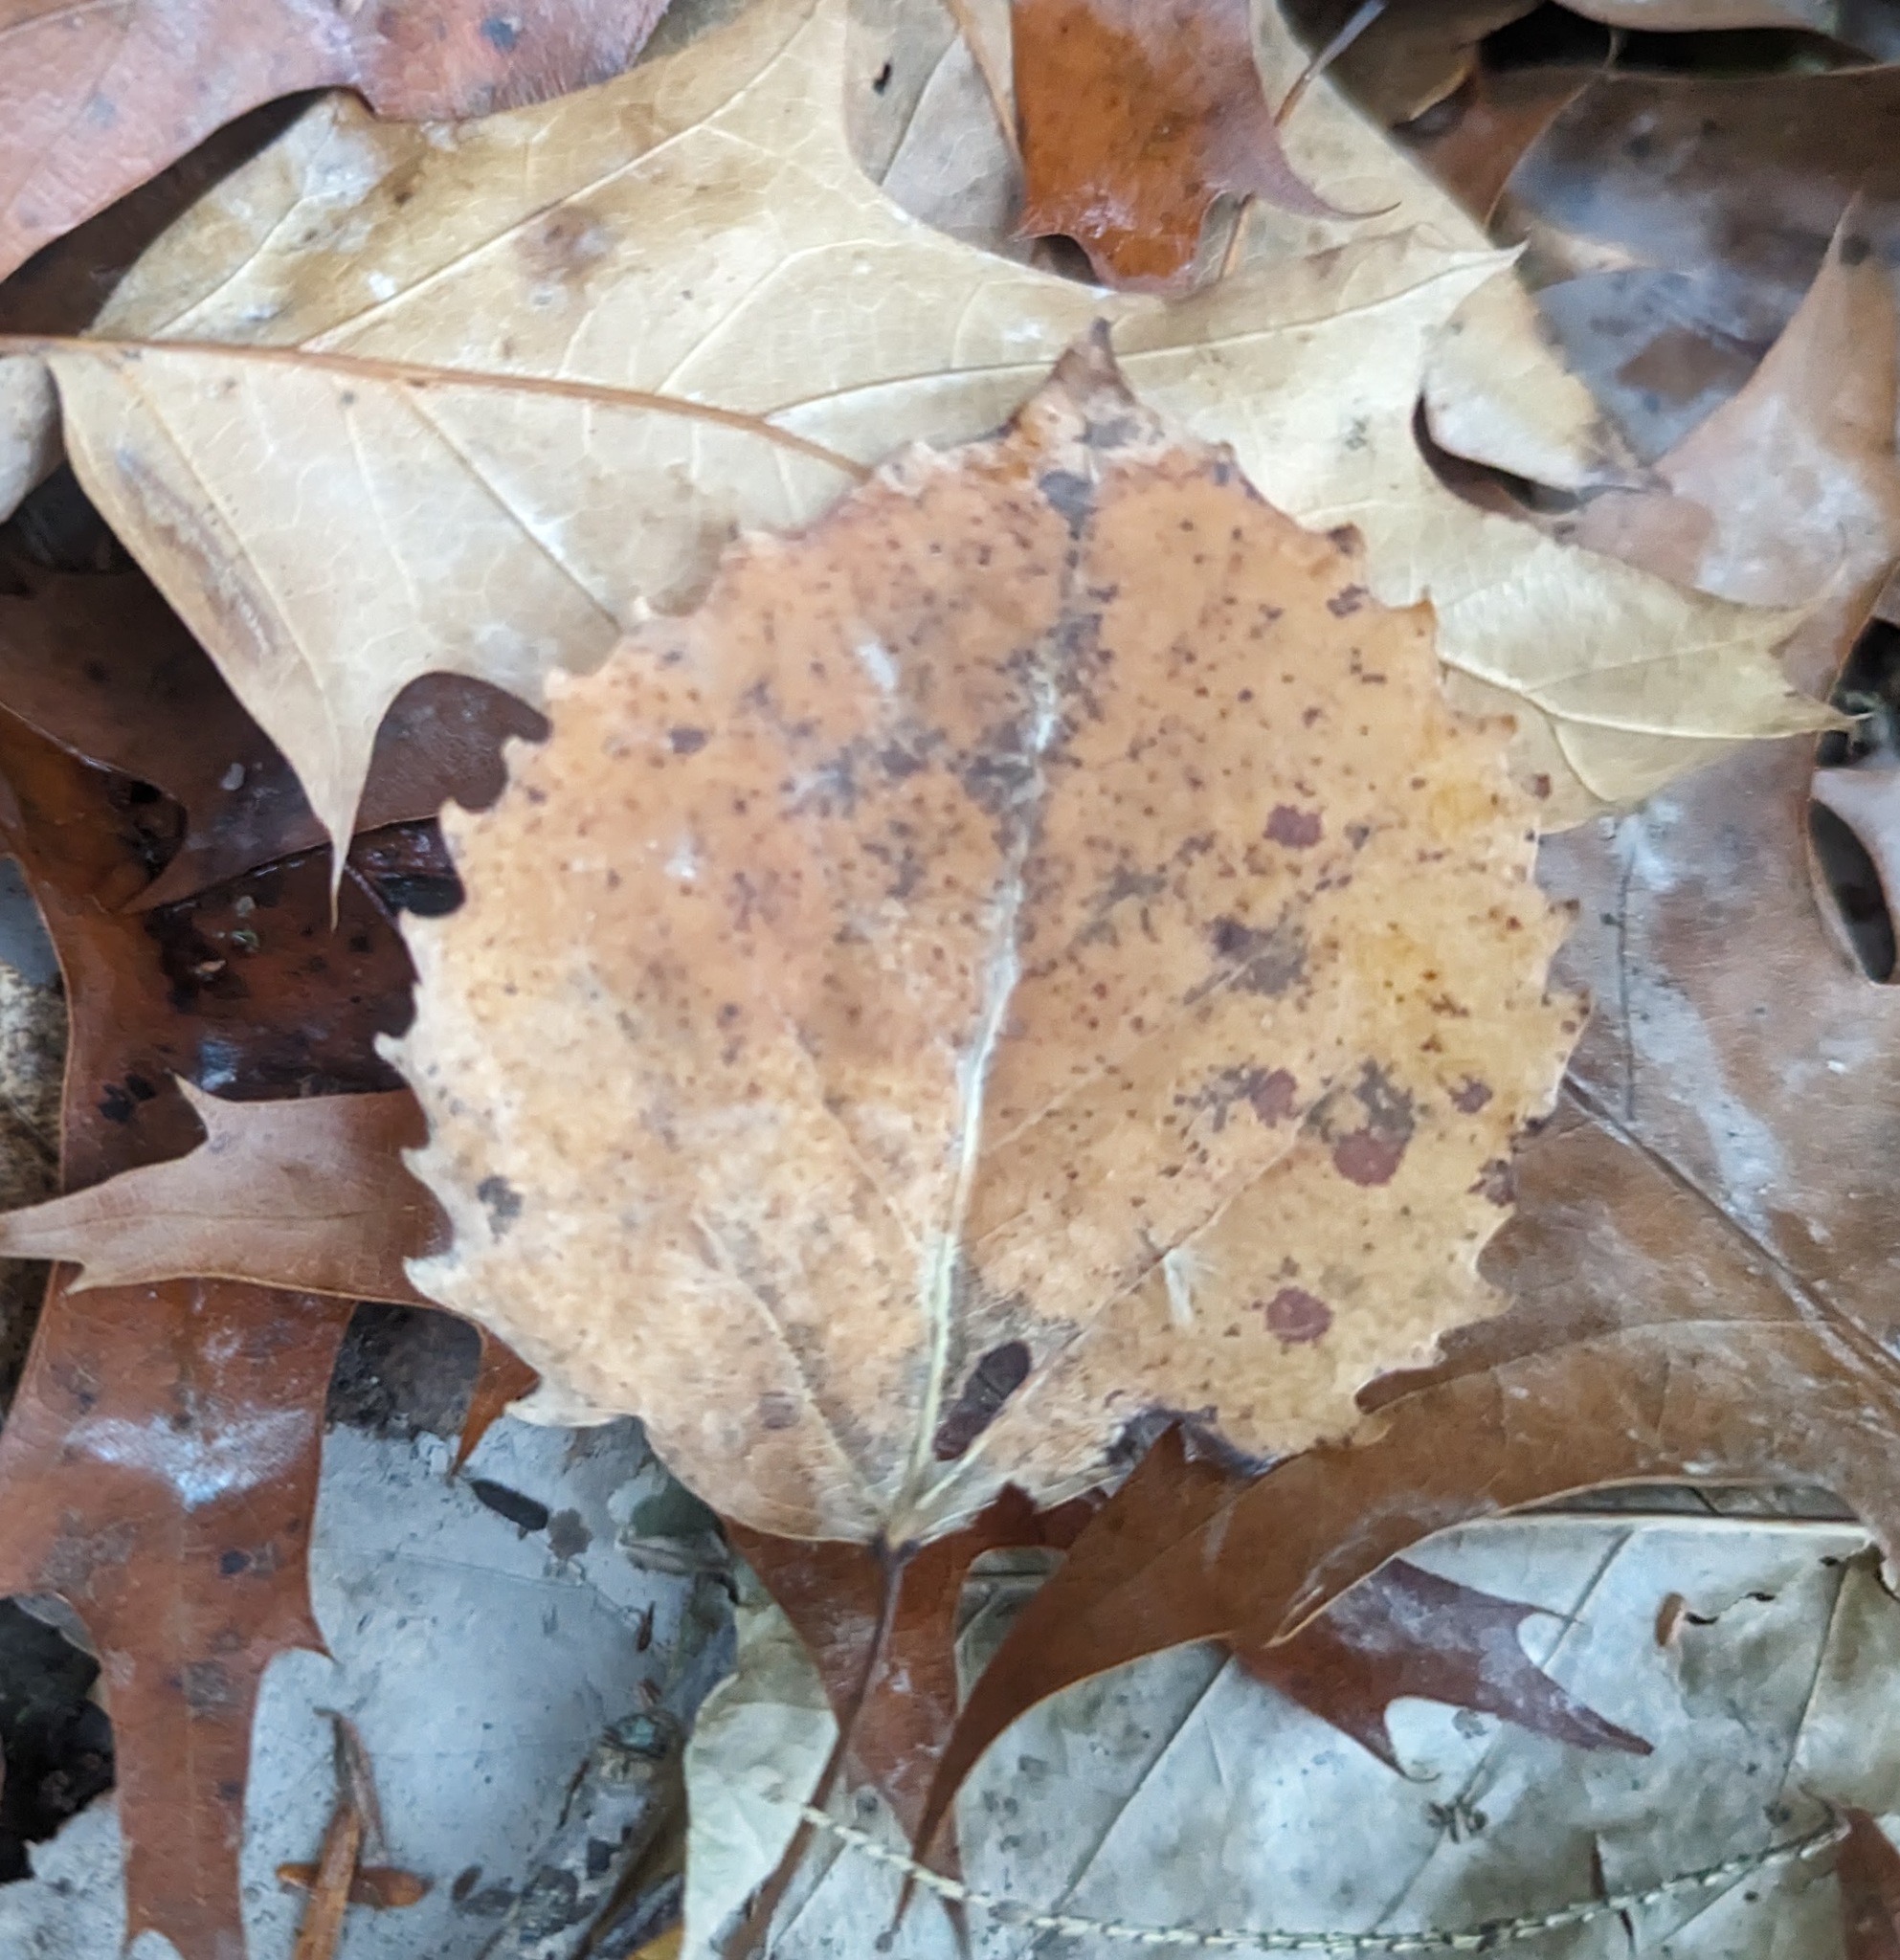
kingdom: Plantae
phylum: Tracheophyta
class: Magnoliopsida
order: Malpighiales
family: Salicaceae
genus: Populus
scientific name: Populus grandidentata
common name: Bigtooth aspen
